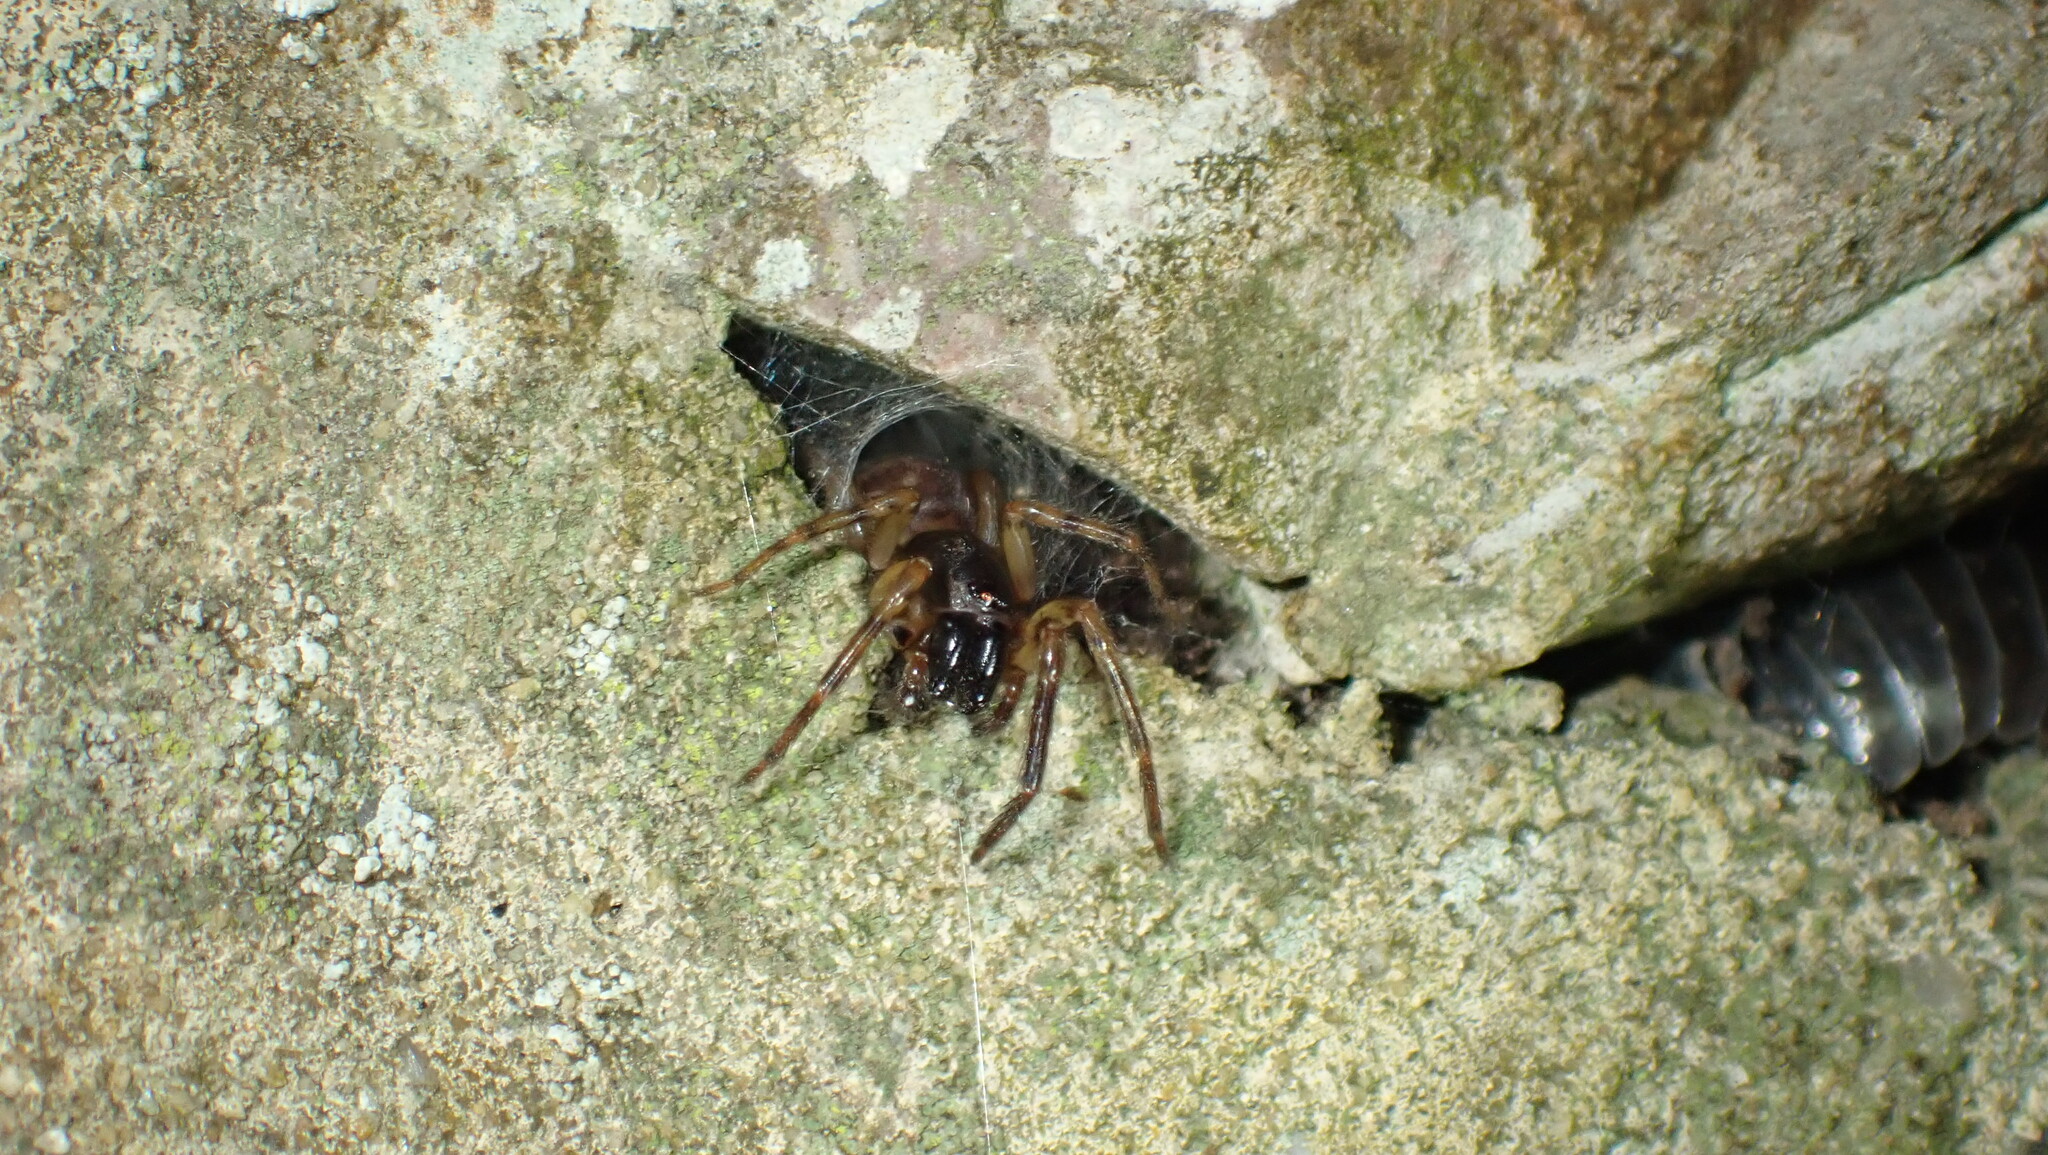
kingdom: Animalia
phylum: Arthropoda
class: Arachnida
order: Araneae
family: Segestriidae
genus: Segestria
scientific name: Segestria senoculata
